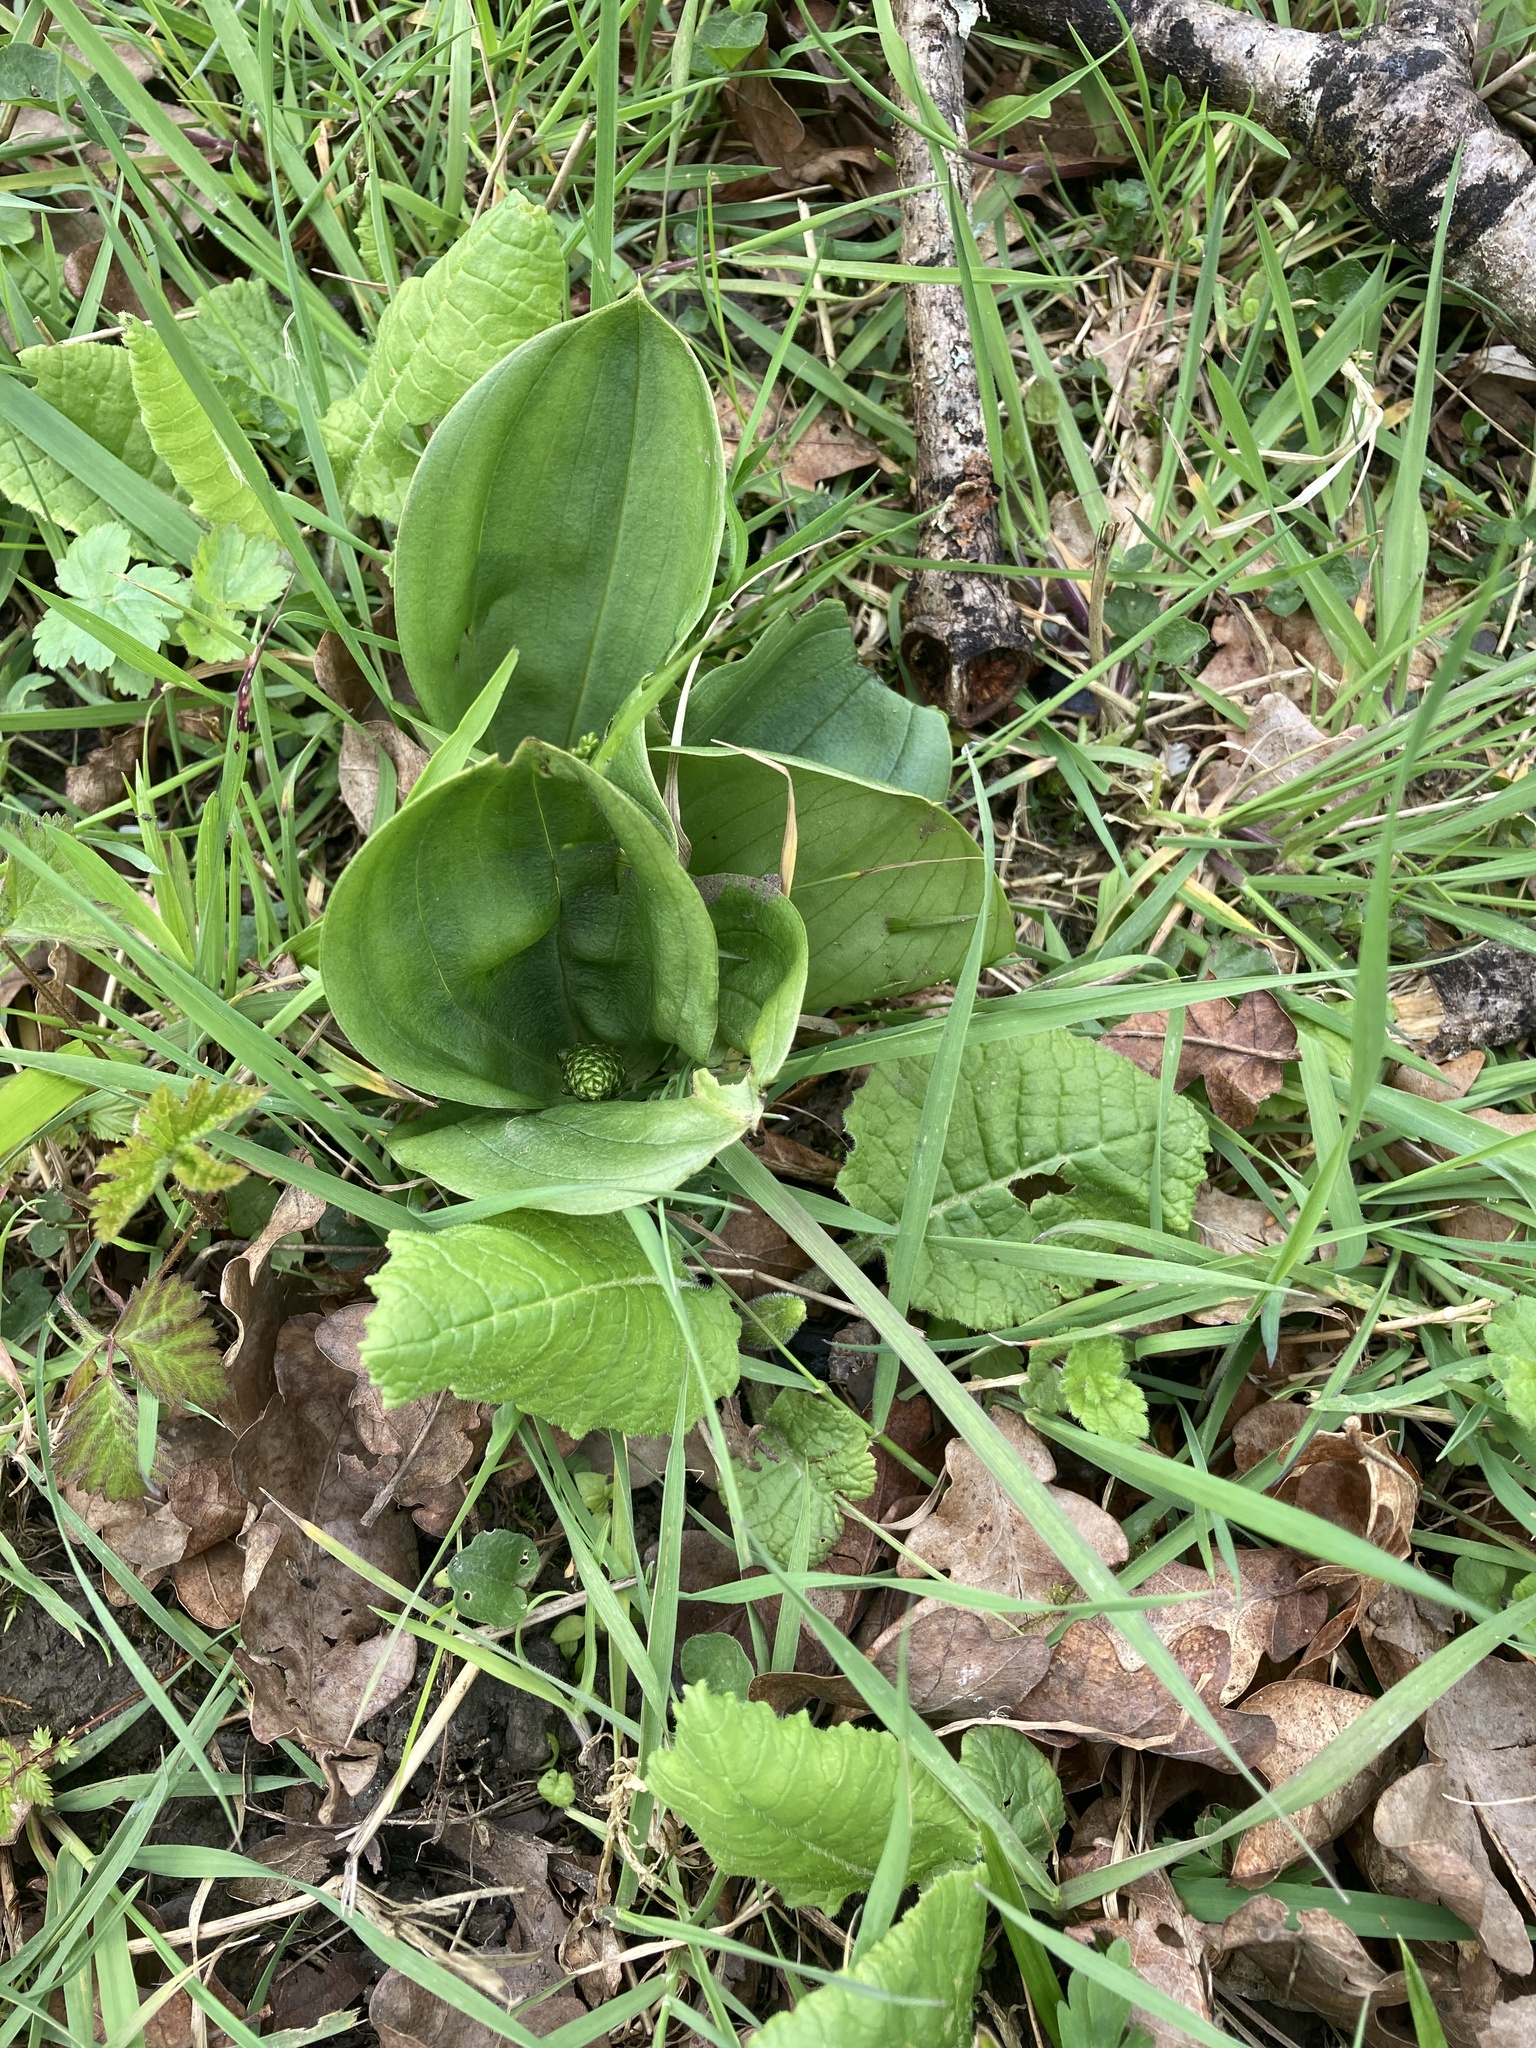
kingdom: Plantae
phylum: Tracheophyta
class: Liliopsida
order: Asparagales
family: Orchidaceae
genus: Neottia
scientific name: Neottia ovata
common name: Common twayblade
